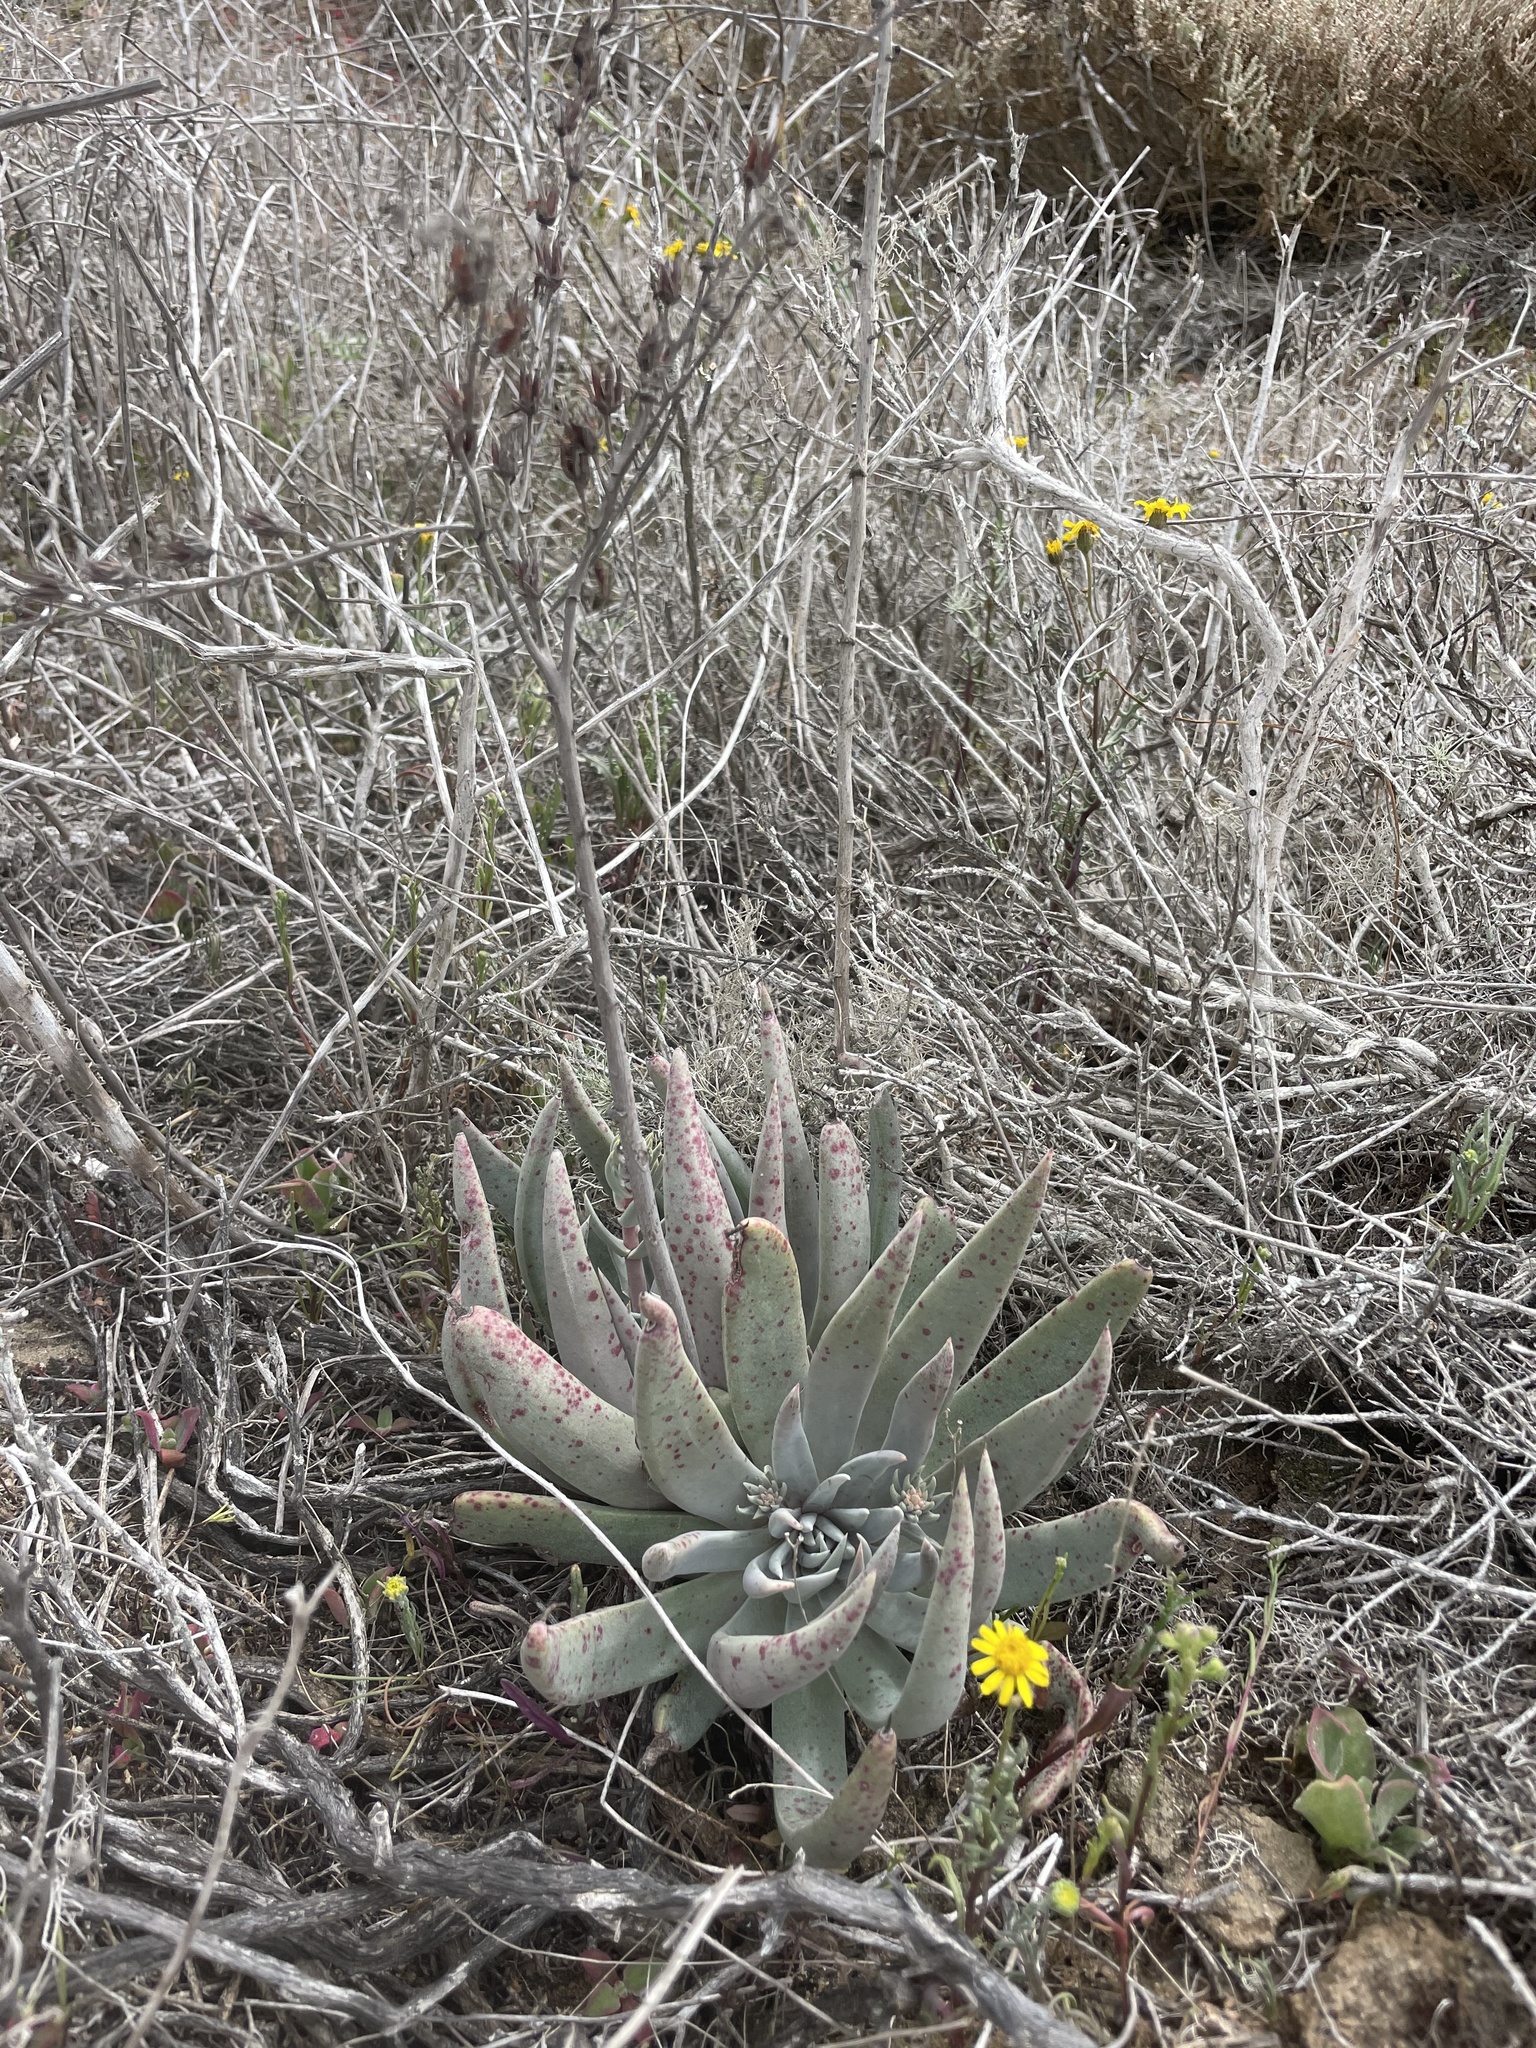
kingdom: Plantae
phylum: Tracheophyta
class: Magnoliopsida
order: Saxifragales
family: Crassulaceae
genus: Dudleya
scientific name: Dudleya cultrata
